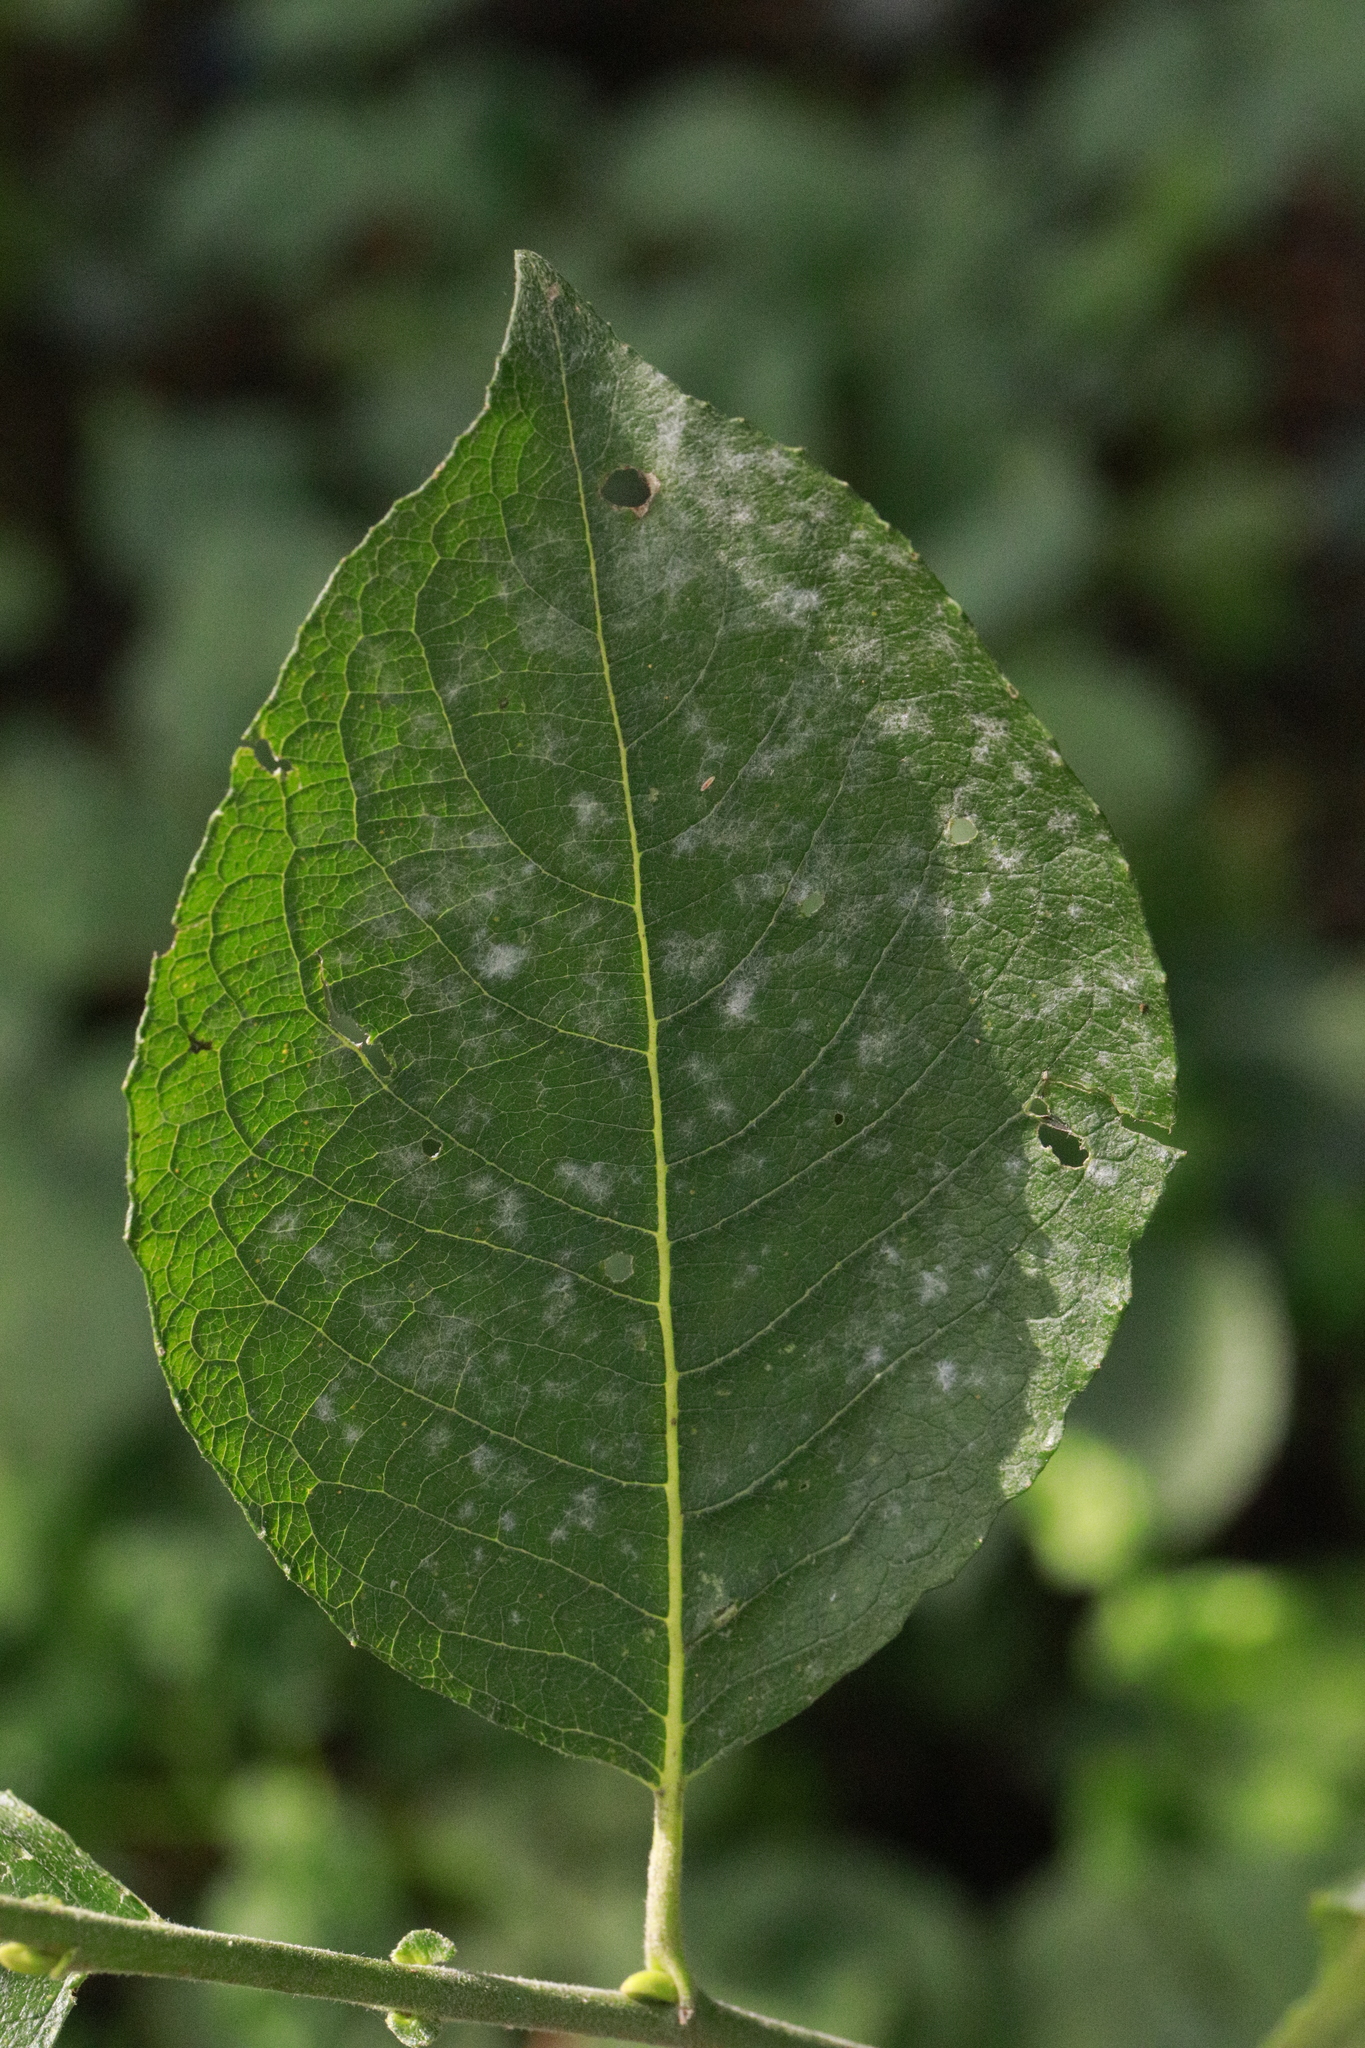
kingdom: Fungi
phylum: Ascomycota
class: Leotiomycetes
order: Helotiales
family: Erysiphaceae
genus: Erysiphe
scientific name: Erysiphe capreae
